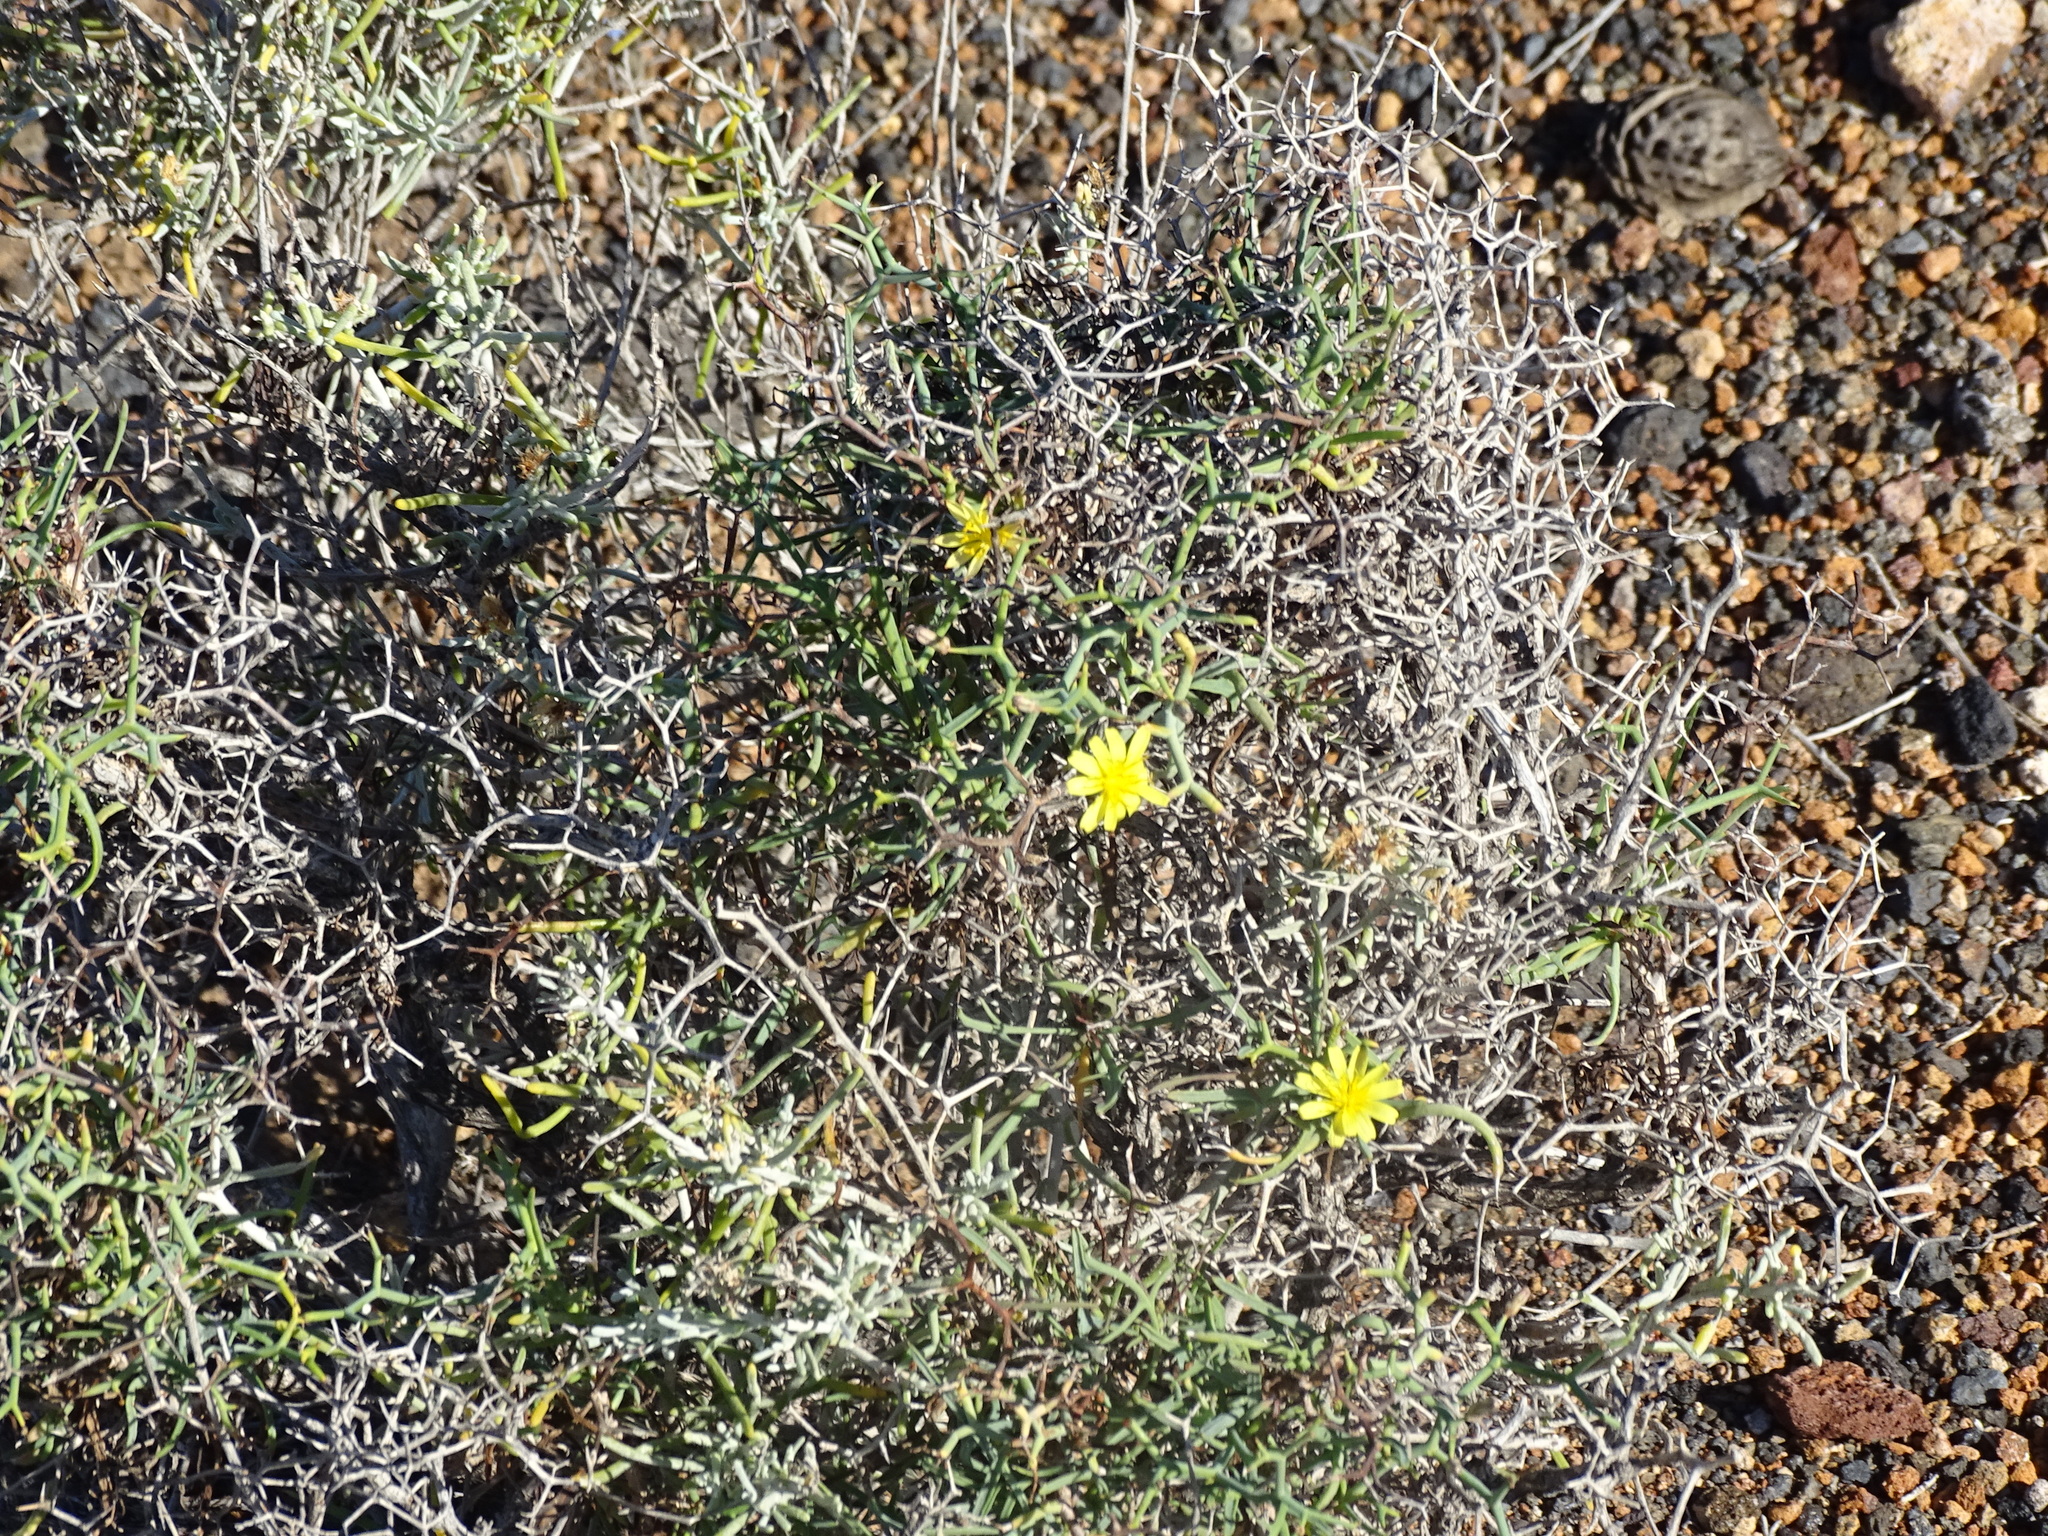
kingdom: Plantae
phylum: Tracheophyta
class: Magnoliopsida
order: Asterales
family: Asteraceae
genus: Launaea
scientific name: Launaea arborescens
